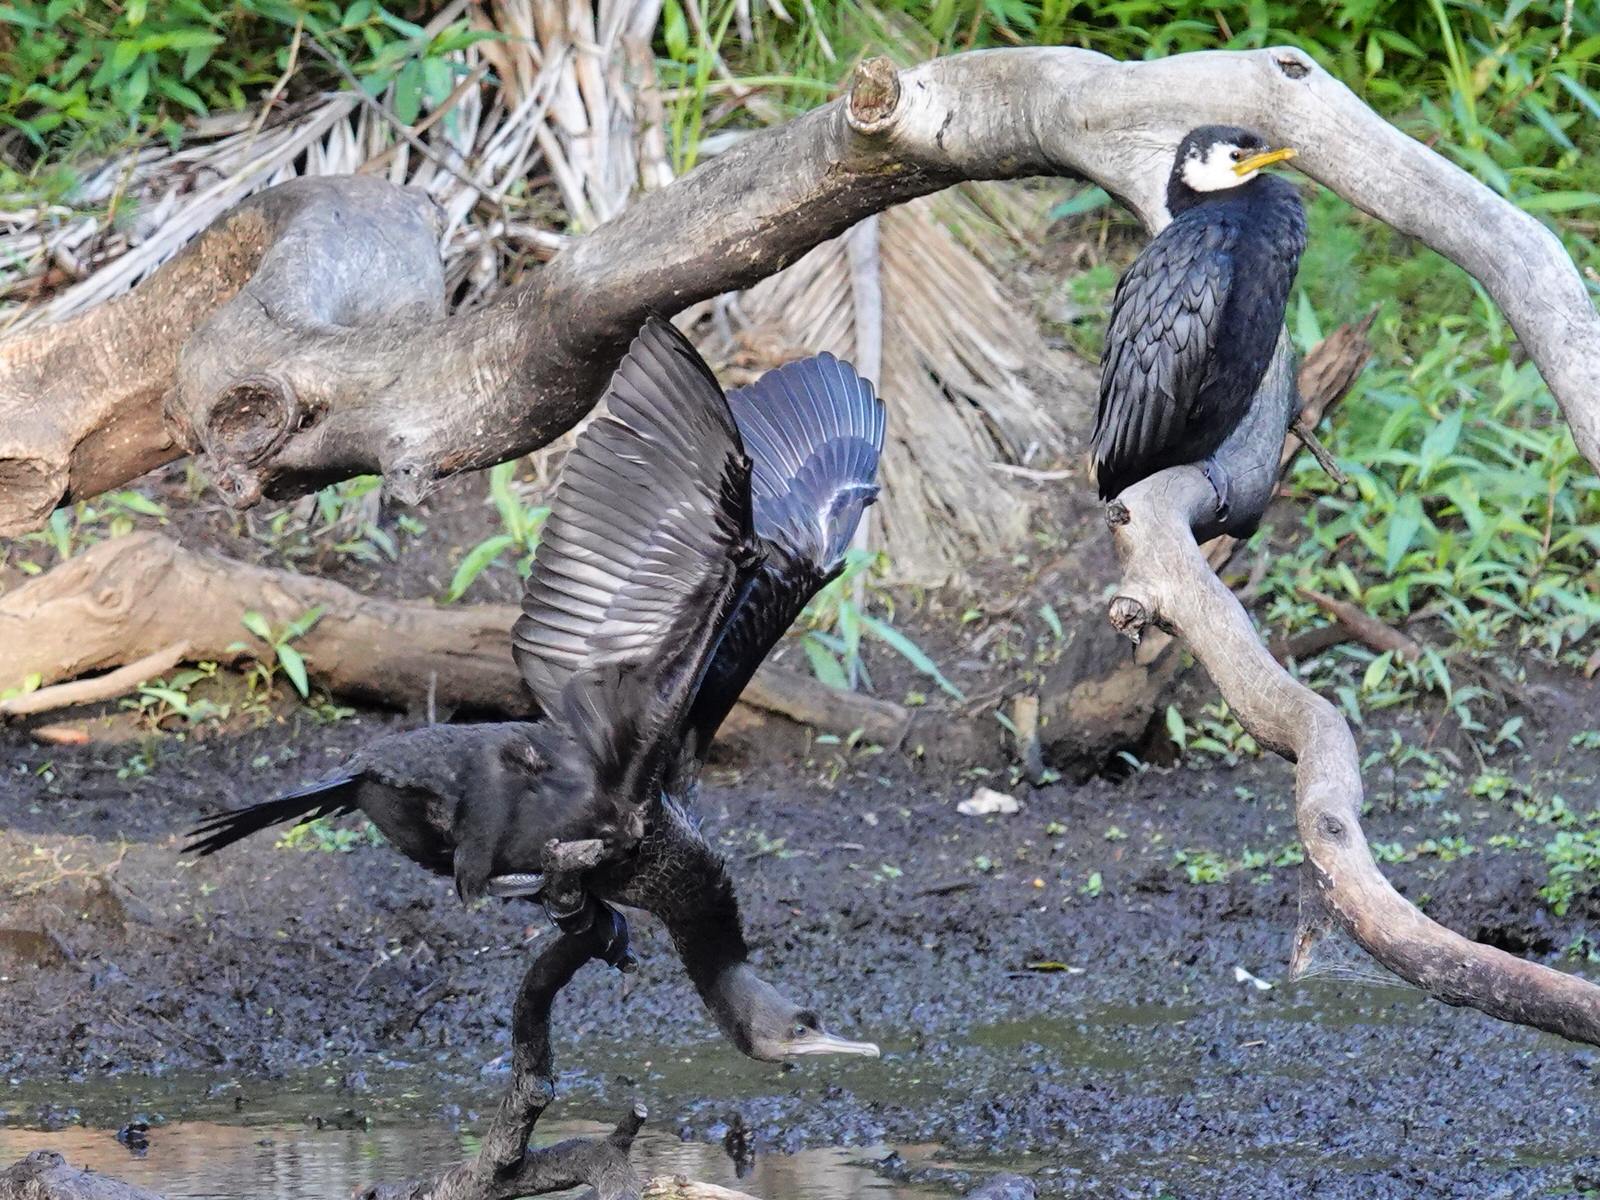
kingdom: Animalia
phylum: Chordata
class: Aves
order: Suliformes
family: Phalacrocoracidae
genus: Microcarbo
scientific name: Microcarbo melanoleucos
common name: Little pied cormorant
